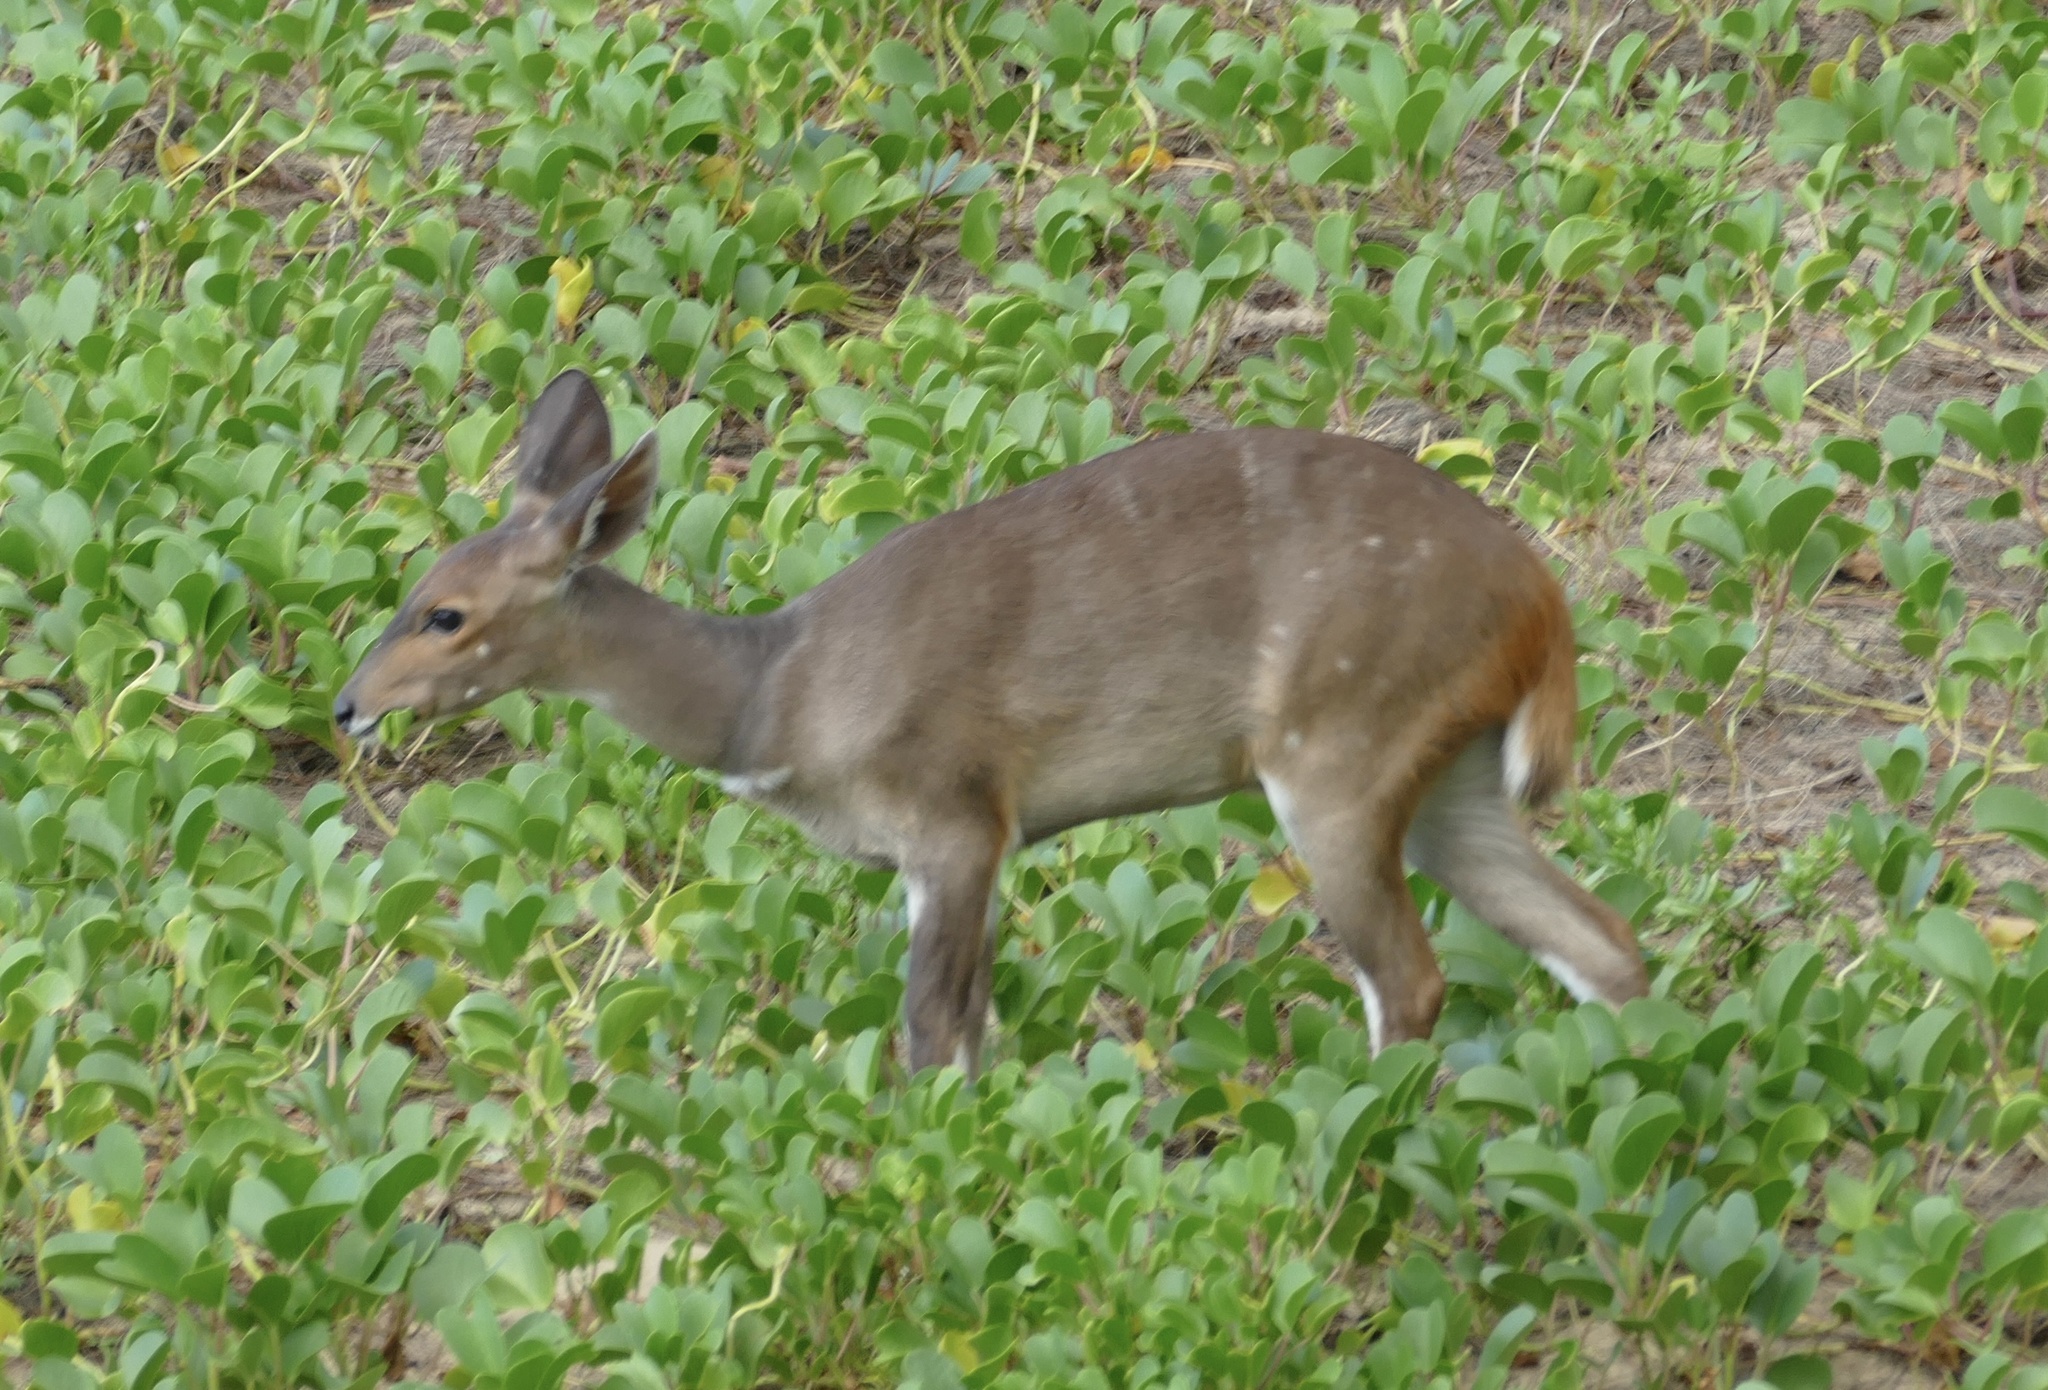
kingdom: Animalia
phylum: Chordata
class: Mammalia
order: Artiodactyla
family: Bovidae
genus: Tragelaphus
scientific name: Tragelaphus scriptus
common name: Bushbuck
